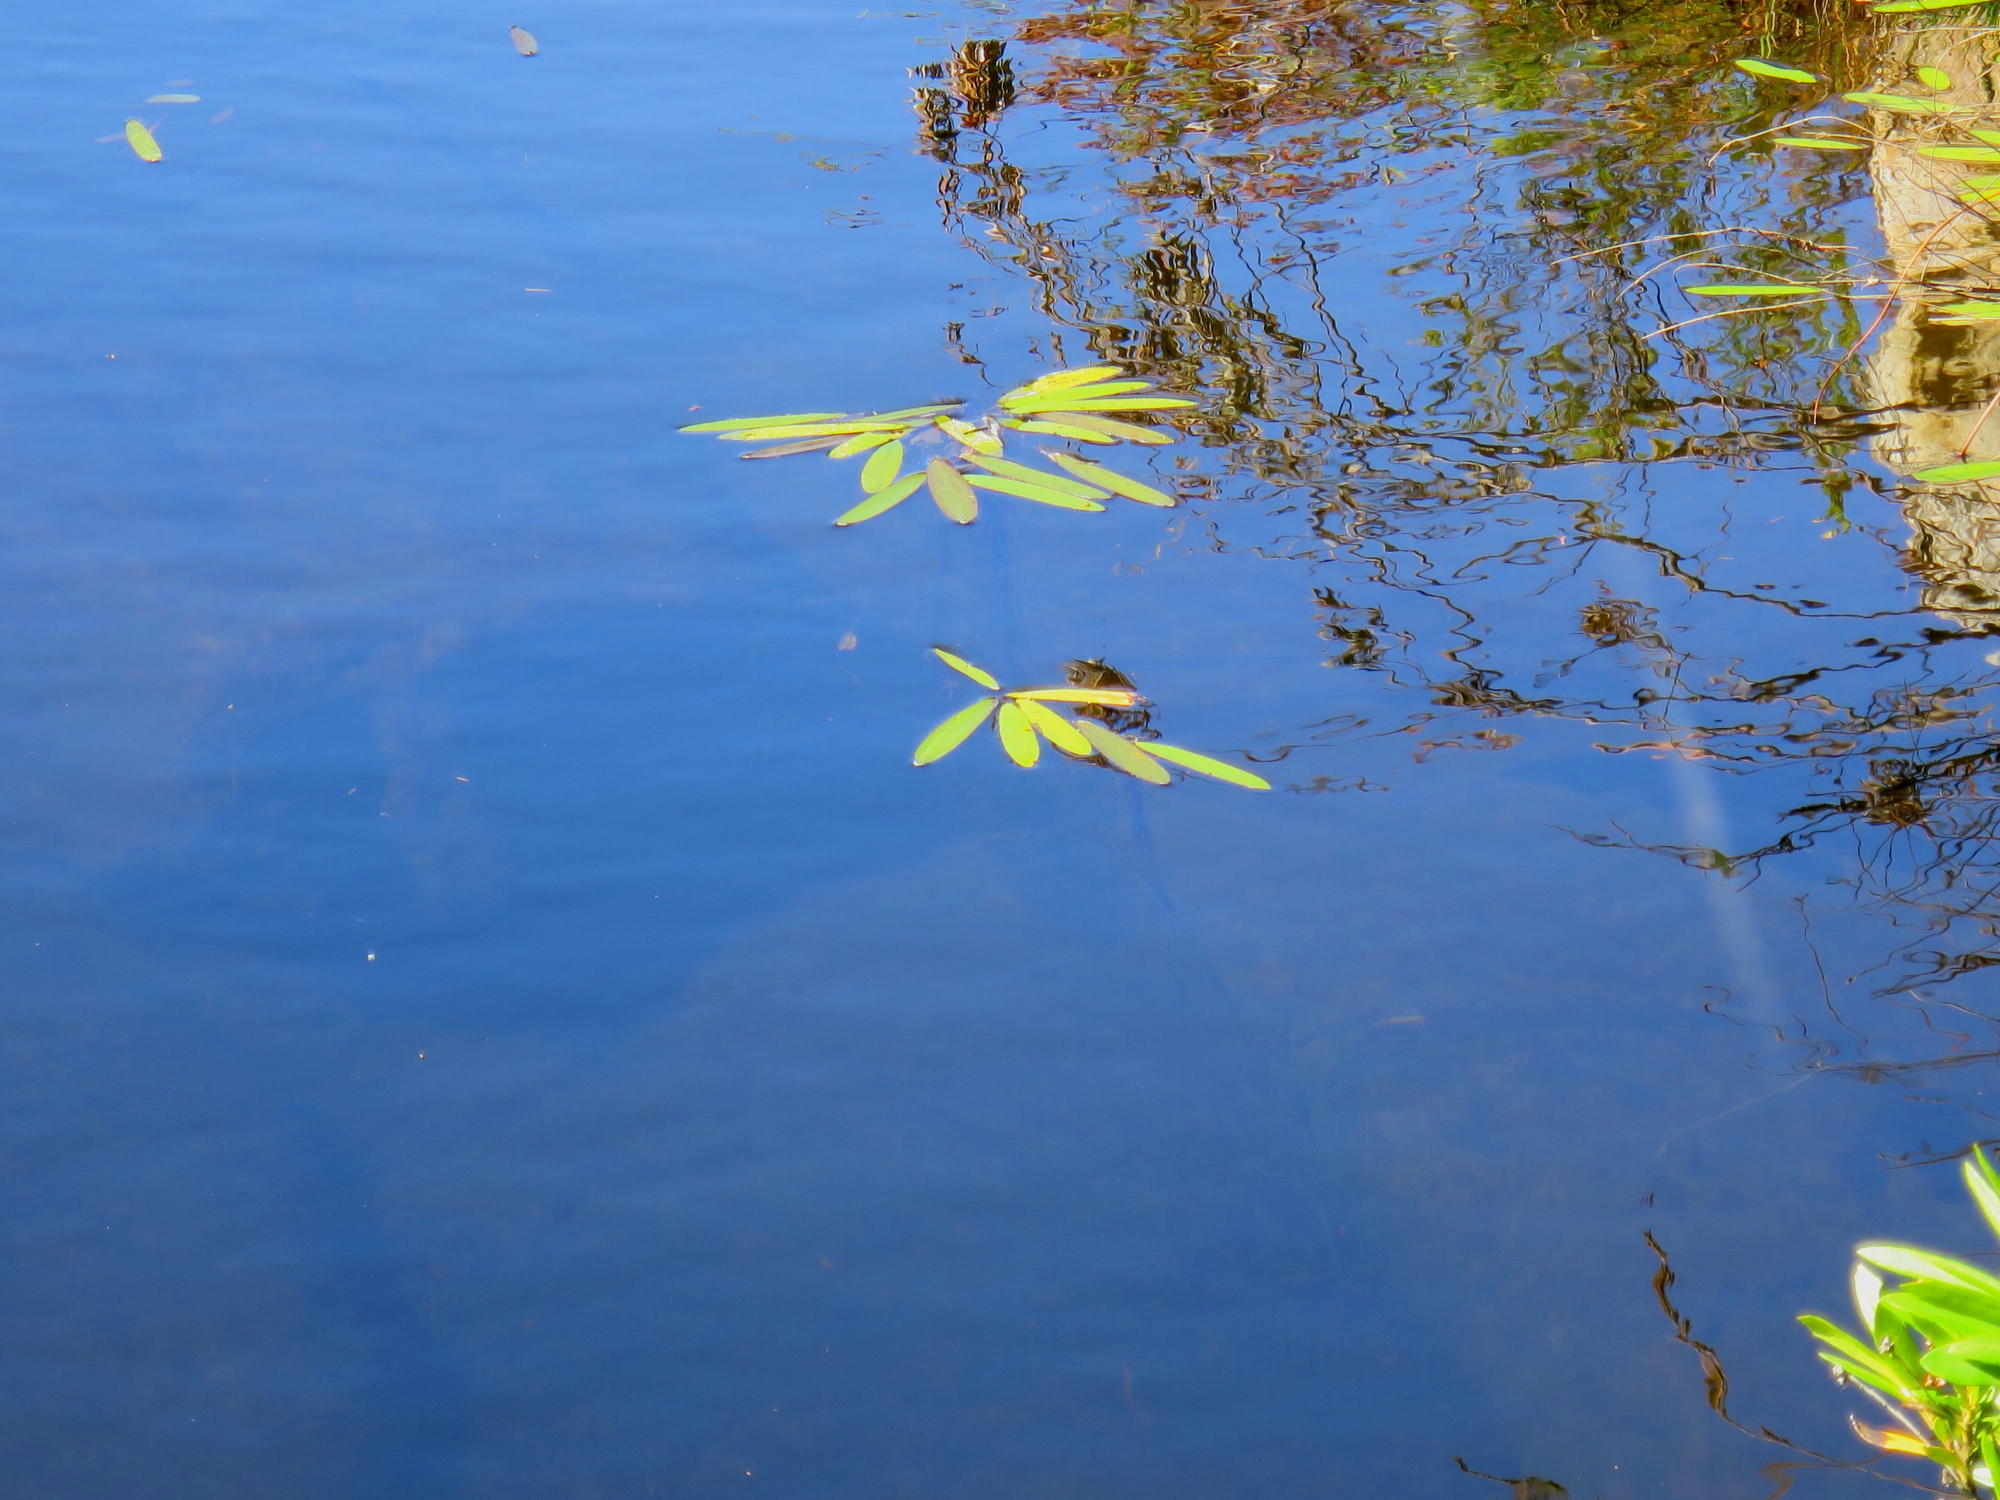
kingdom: Plantae
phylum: Tracheophyta
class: Liliopsida
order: Alismatales
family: Aponogetonaceae
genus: Aponogeton
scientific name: Aponogeton distachyos
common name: Cape-pondweed
